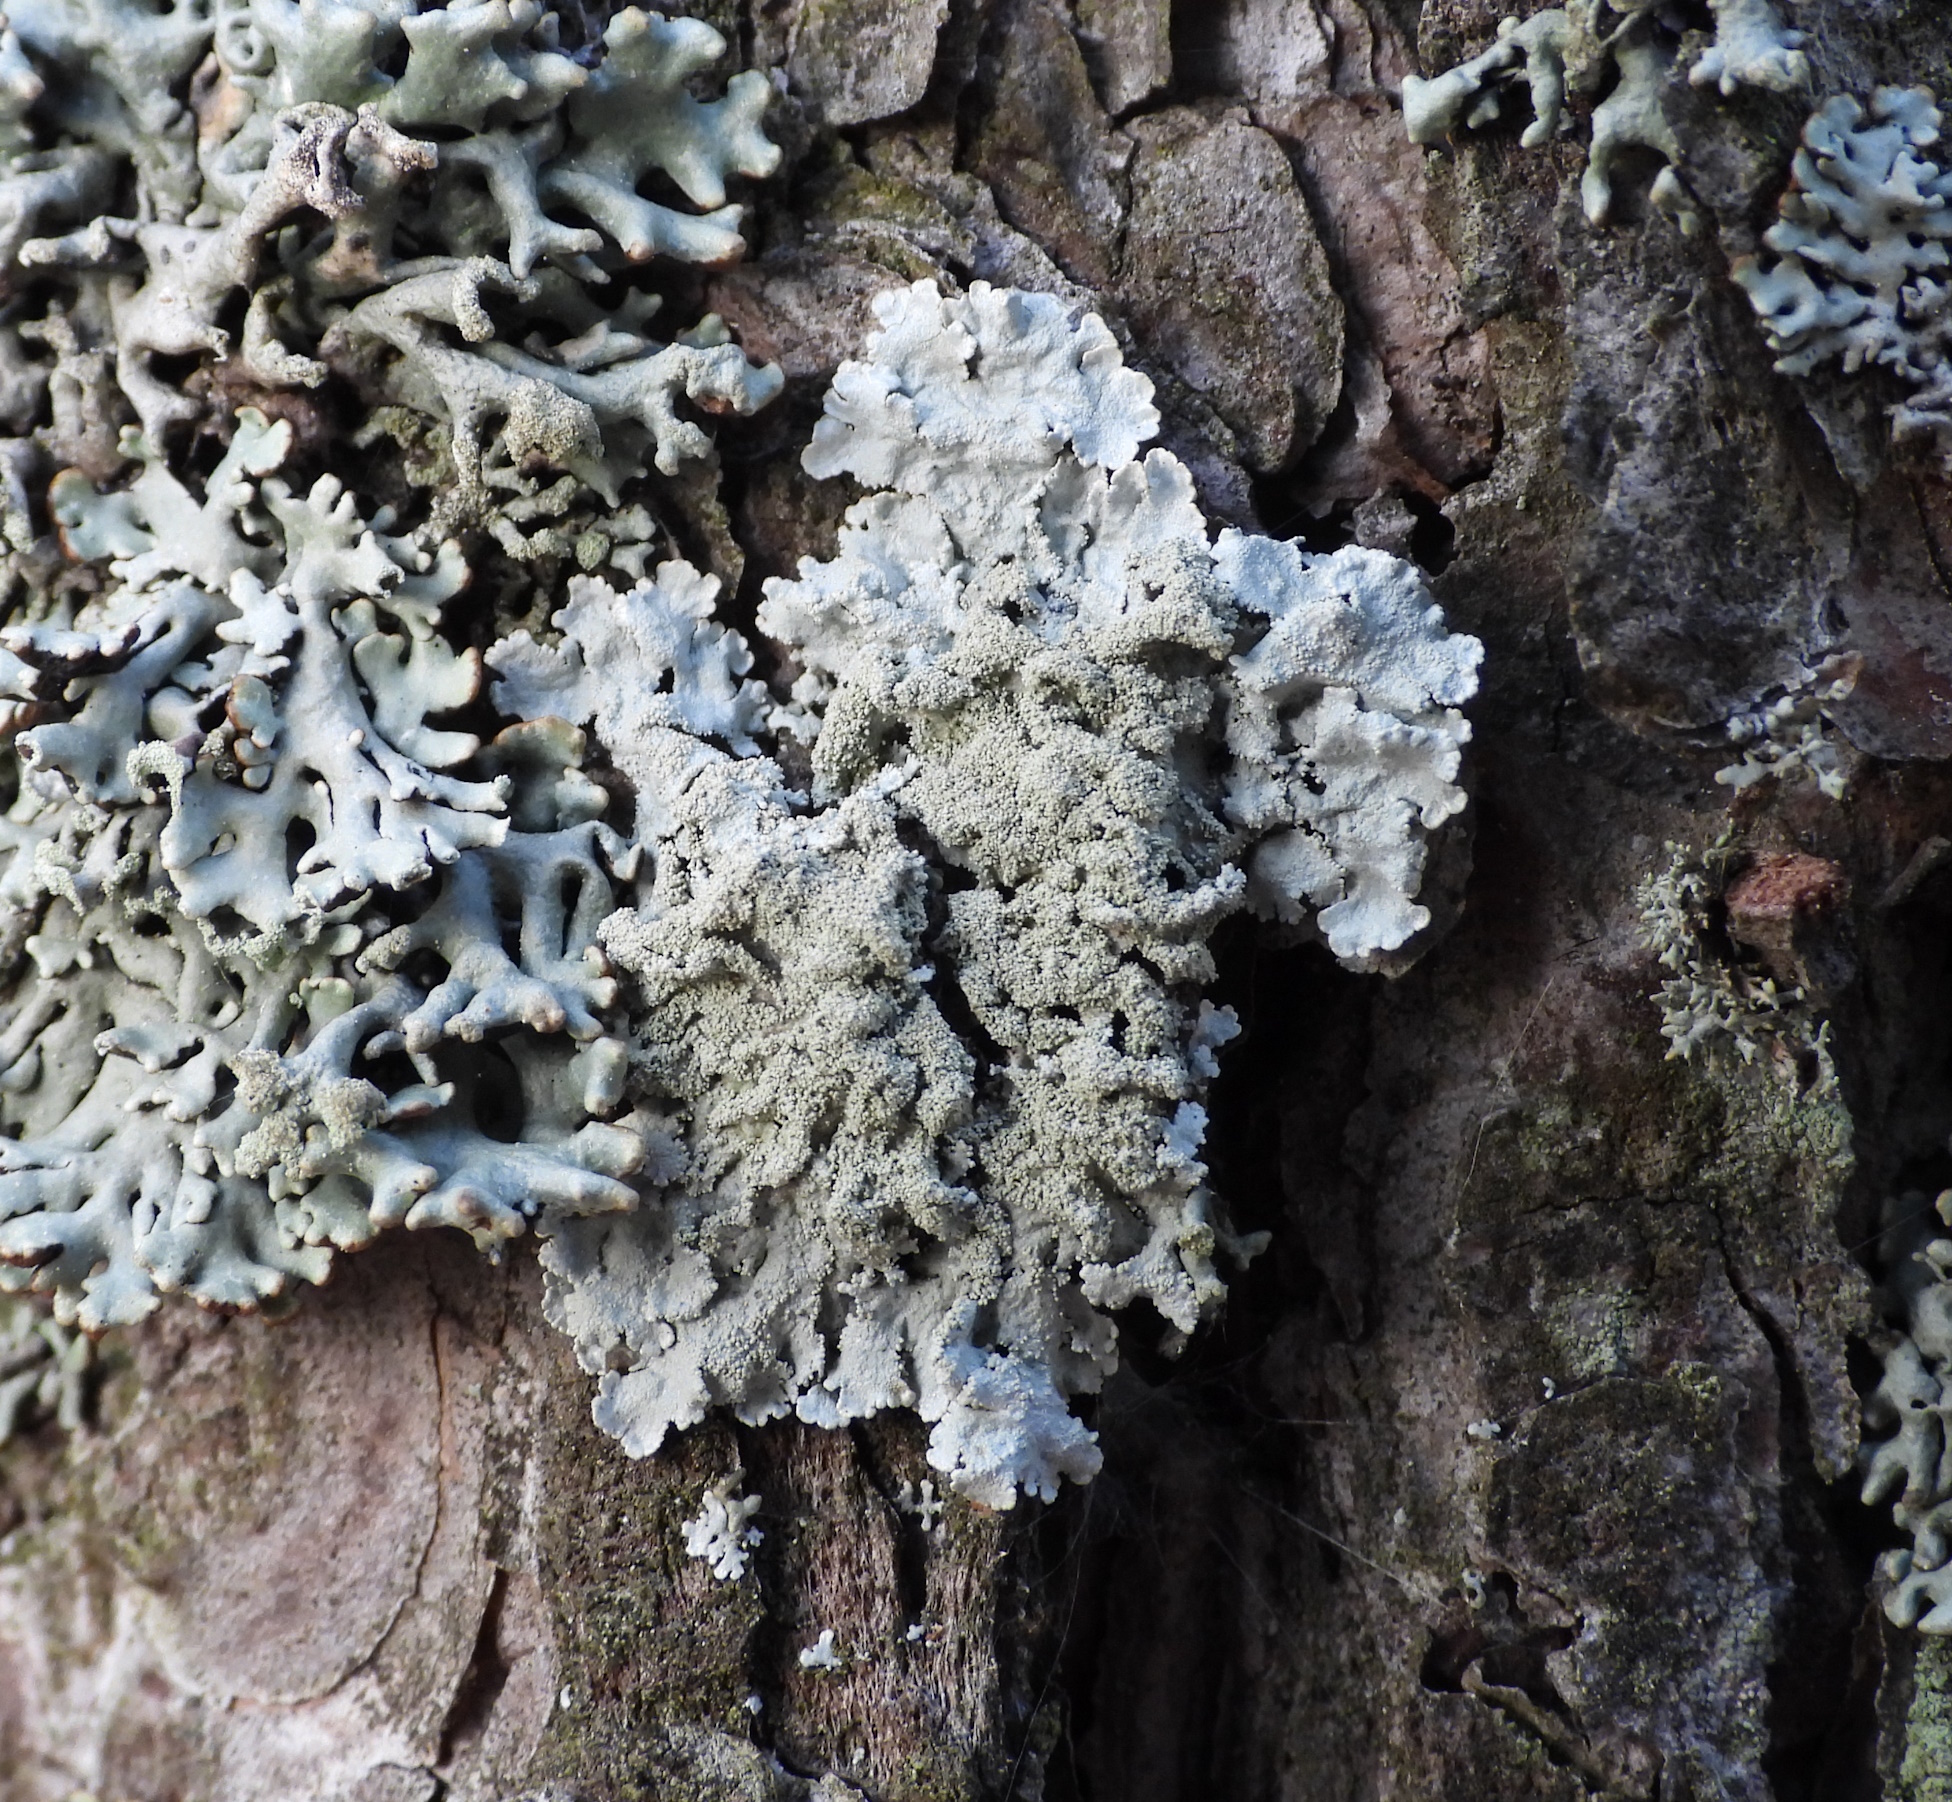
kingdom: Fungi
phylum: Ascomycota
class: Lecanoromycetes
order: Lecanorales
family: Parmeliaceae
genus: Imshaugia
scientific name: Imshaugia aleurites
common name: Salted starburst lichen
